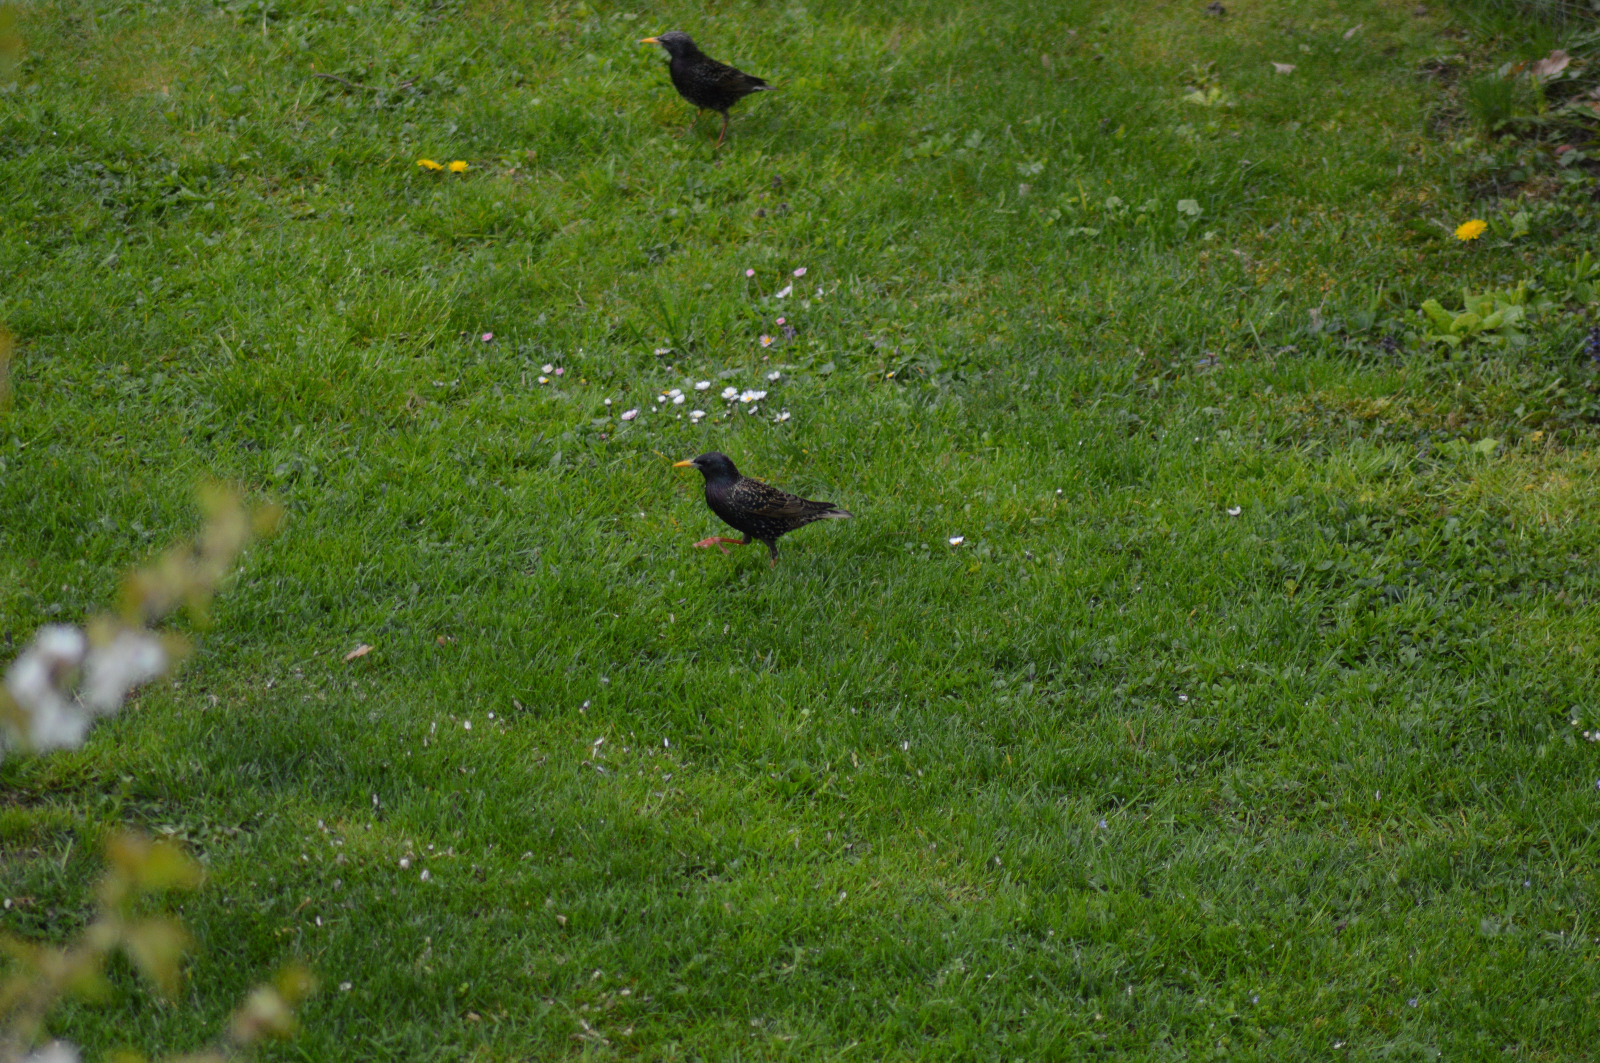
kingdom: Animalia
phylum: Chordata
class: Aves
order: Passeriformes
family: Sturnidae
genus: Sturnus
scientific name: Sturnus vulgaris
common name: Common starling
